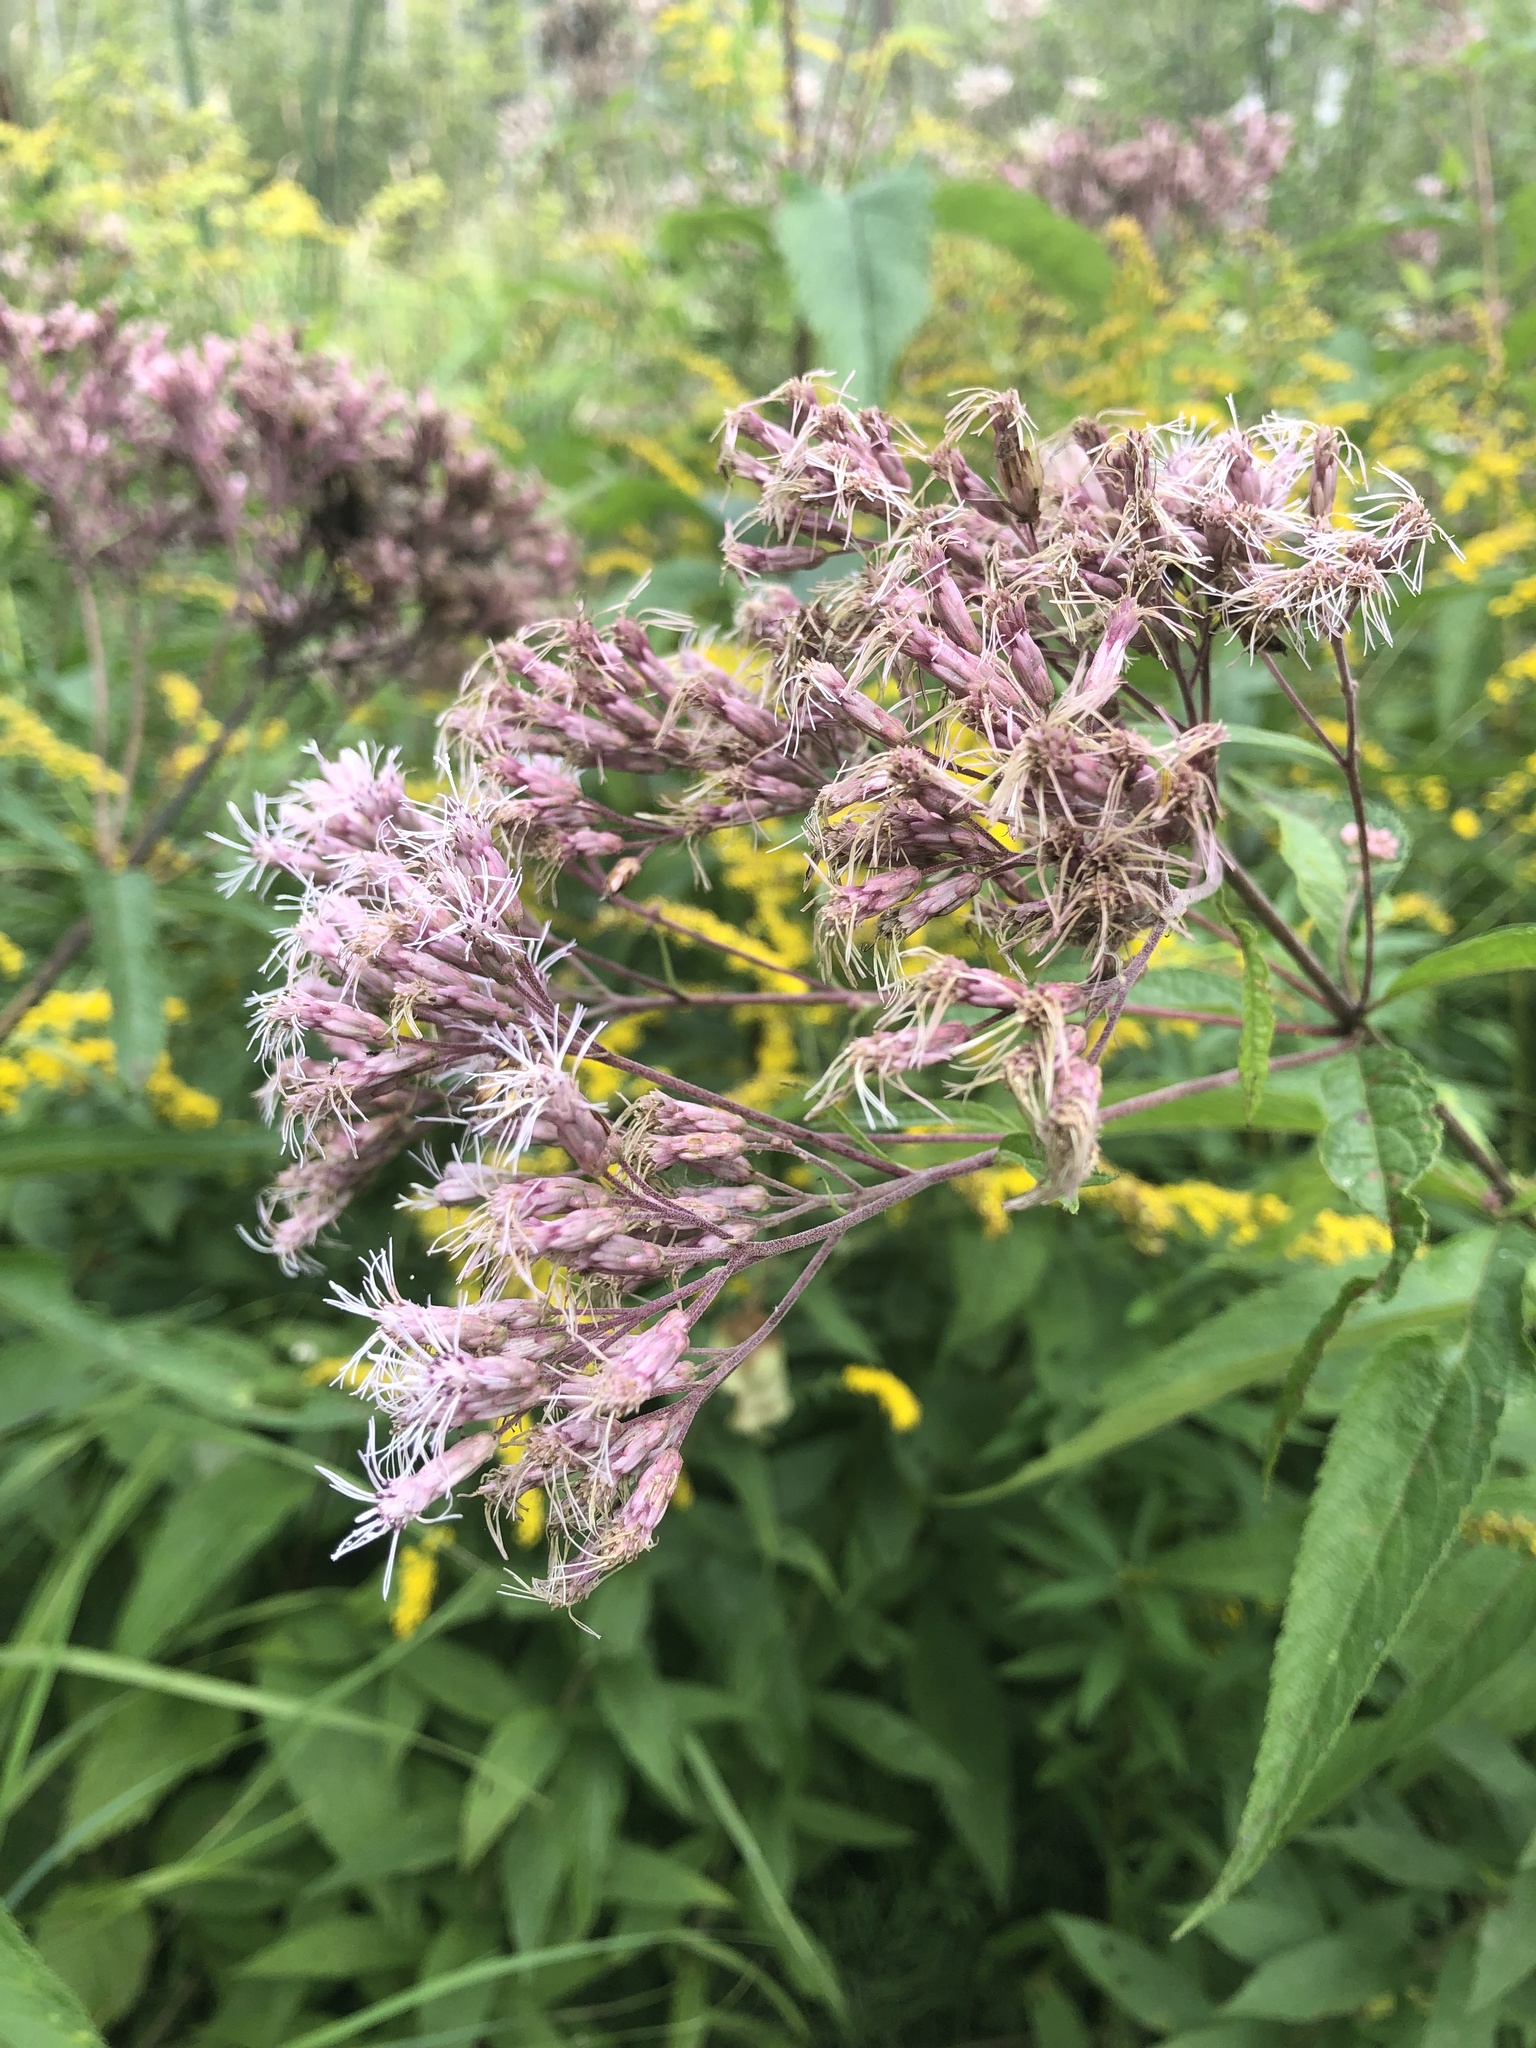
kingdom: Plantae
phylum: Tracheophyta
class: Magnoliopsida
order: Asterales
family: Asteraceae
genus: Eutrochium
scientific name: Eutrochium maculatum
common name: Spotted joe pye weed
